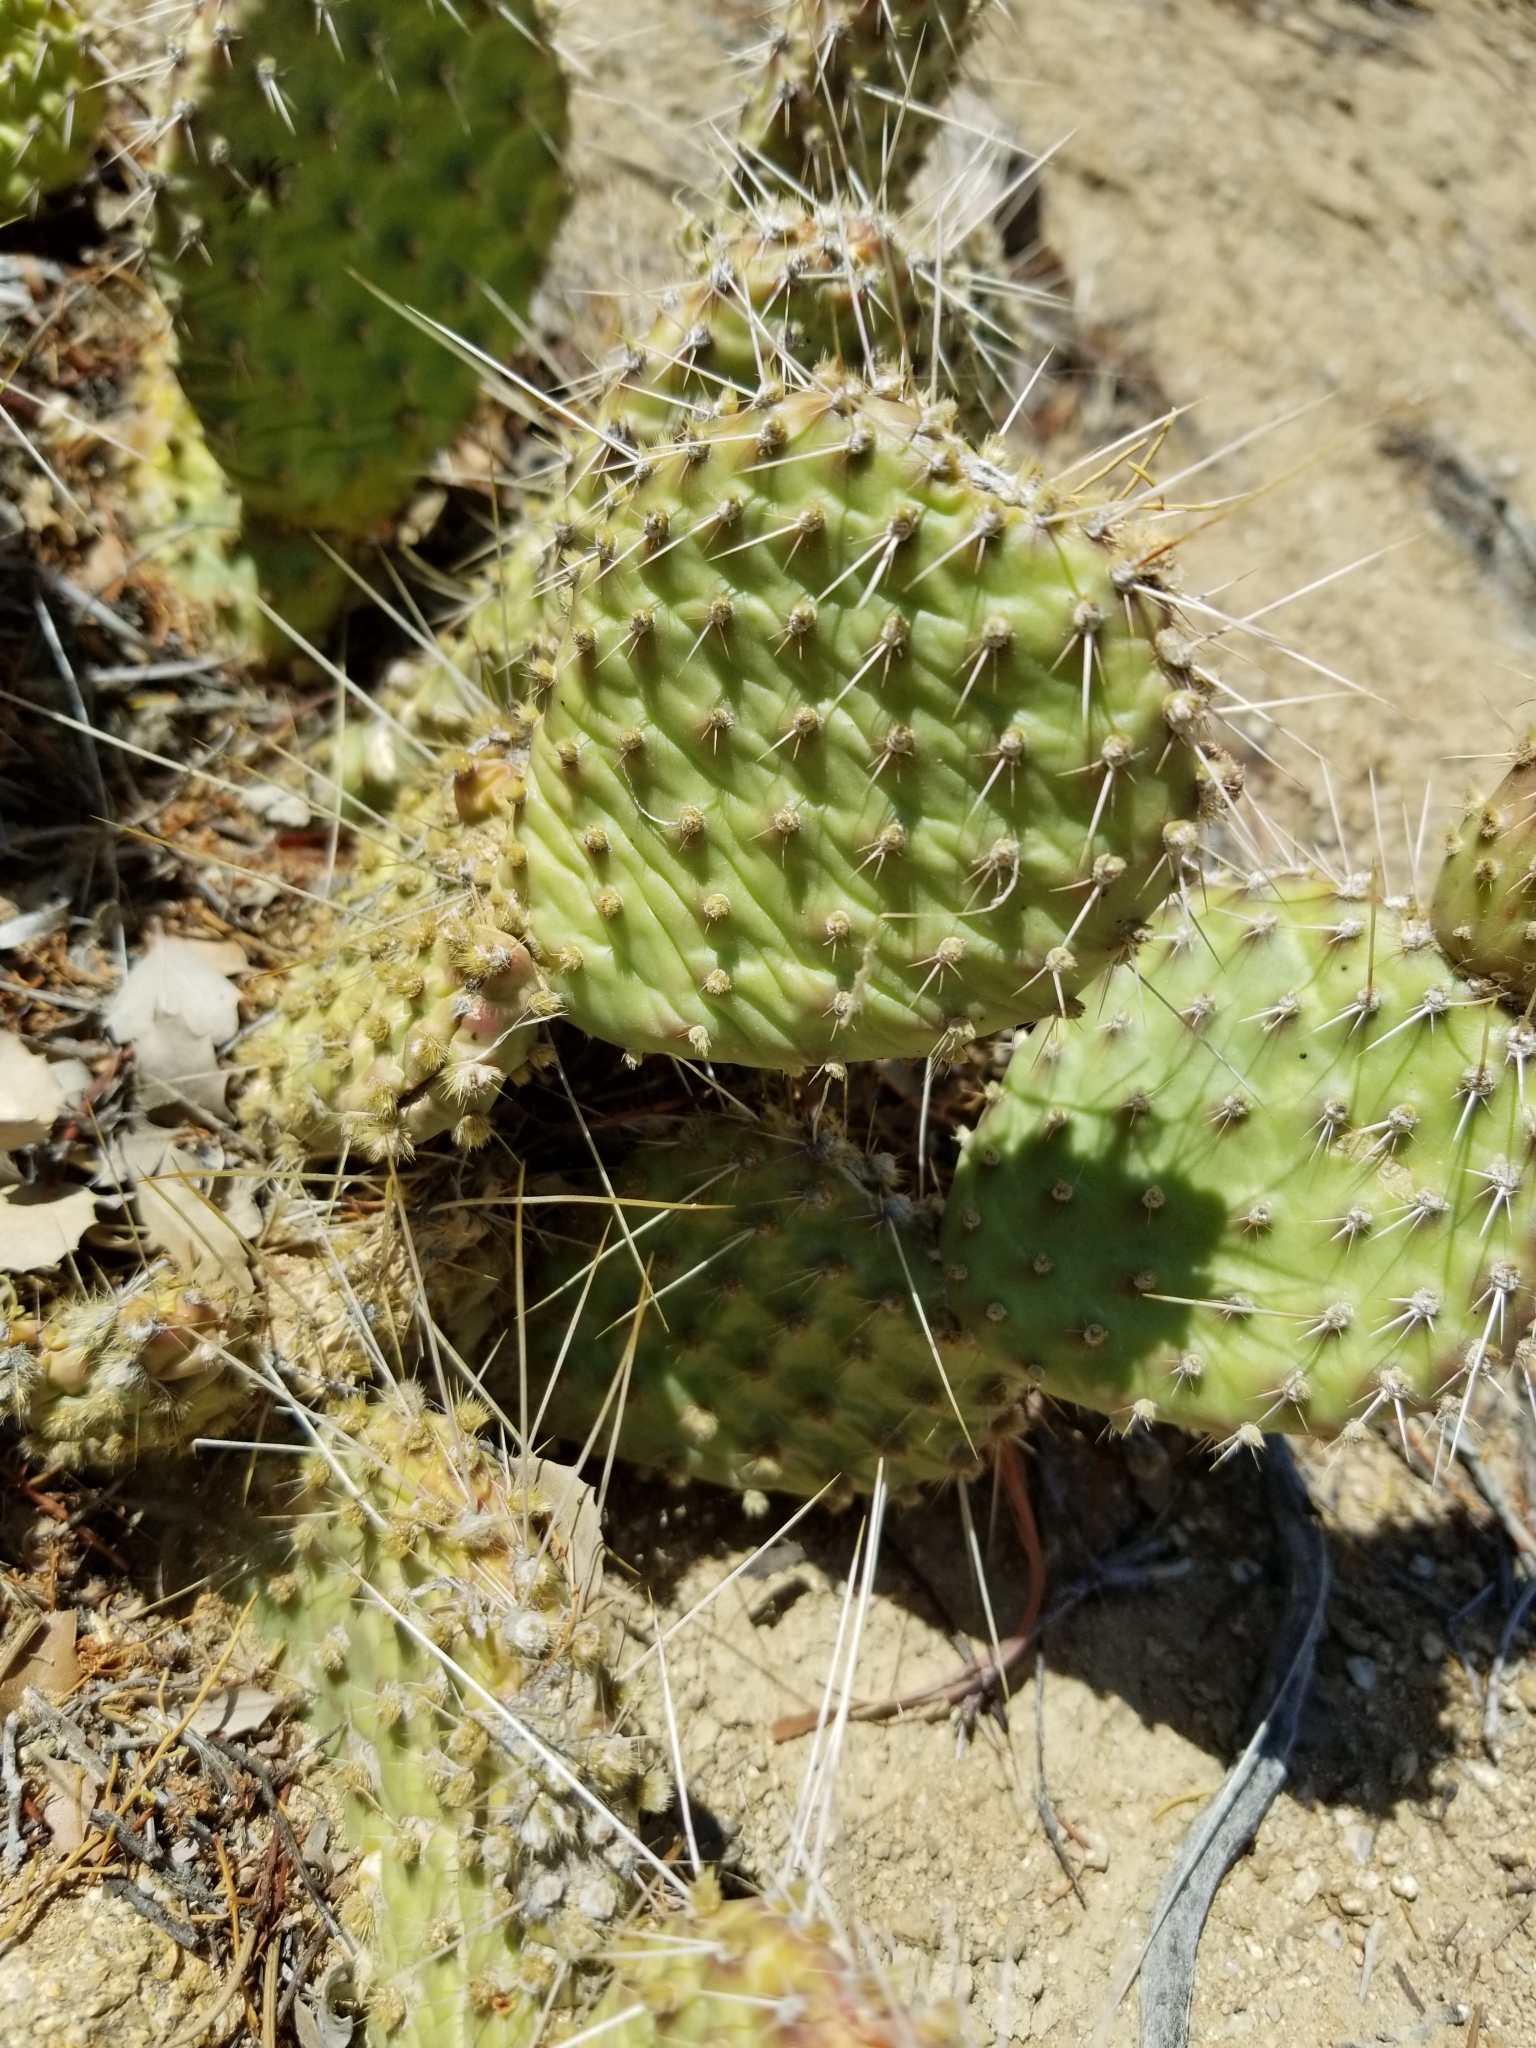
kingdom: Plantae
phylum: Tracheophyta
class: Magnoliopsida
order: Caryophyllales
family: Cactaceae
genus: Opuntia
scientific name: Opuntia polyacantha
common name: Plains prickly-pear
